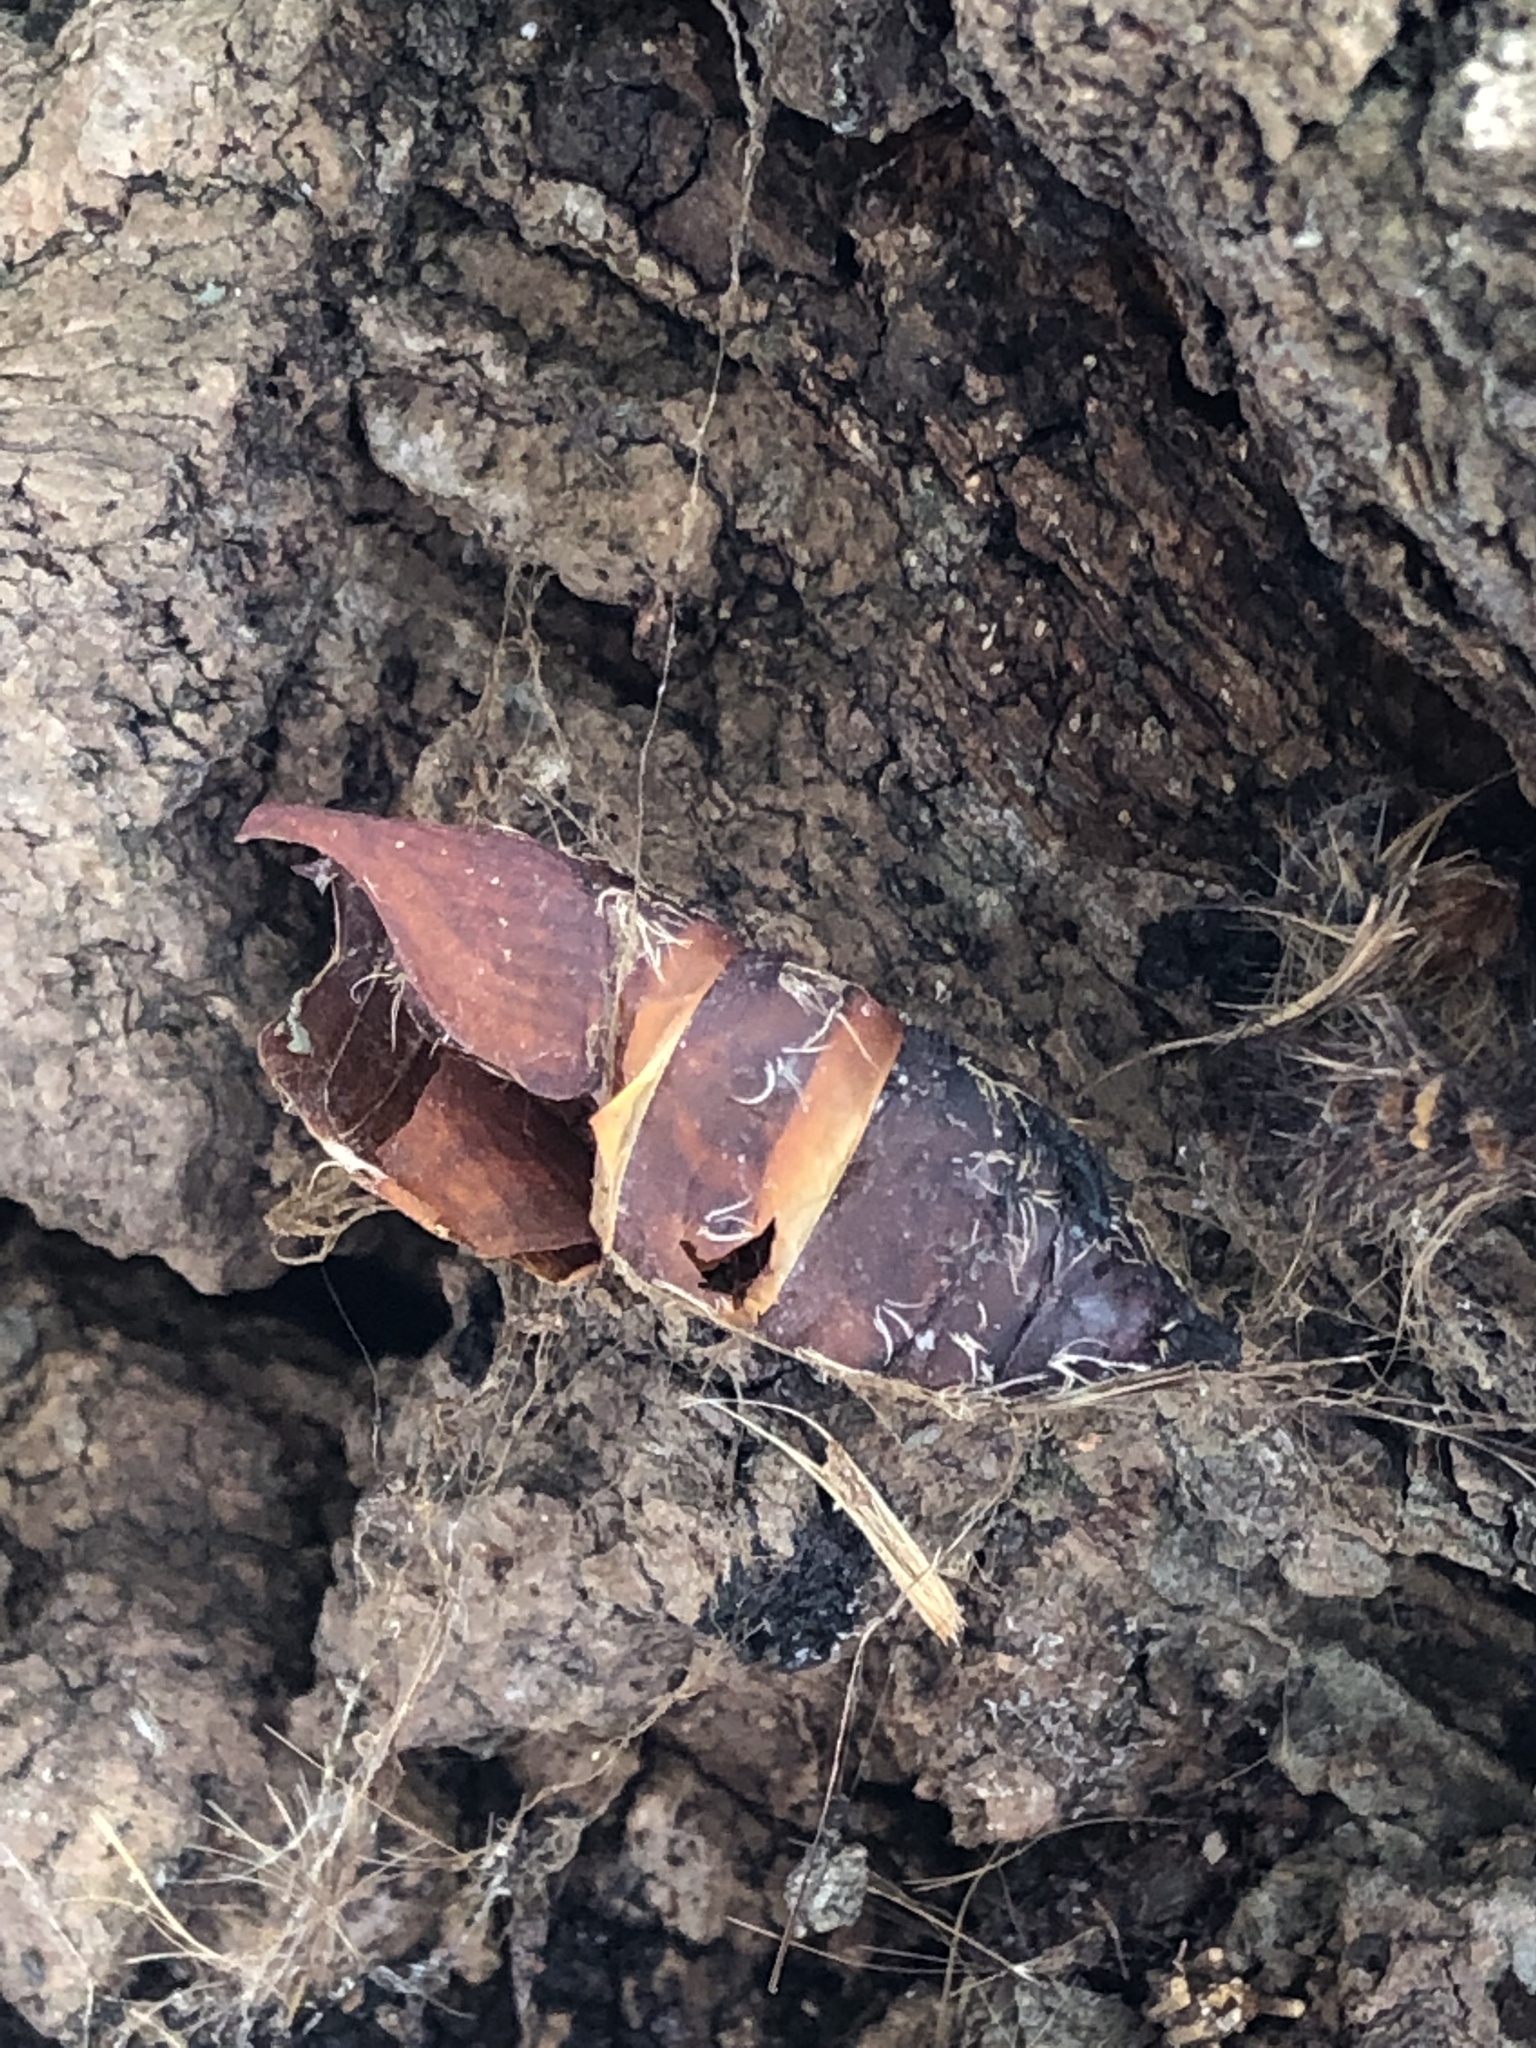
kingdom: Animalia
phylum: Arthropoda
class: Insecta
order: Lepidoptera
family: Erebidae
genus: Lymantria
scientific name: Lymantria dispar
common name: Gypsy moth
